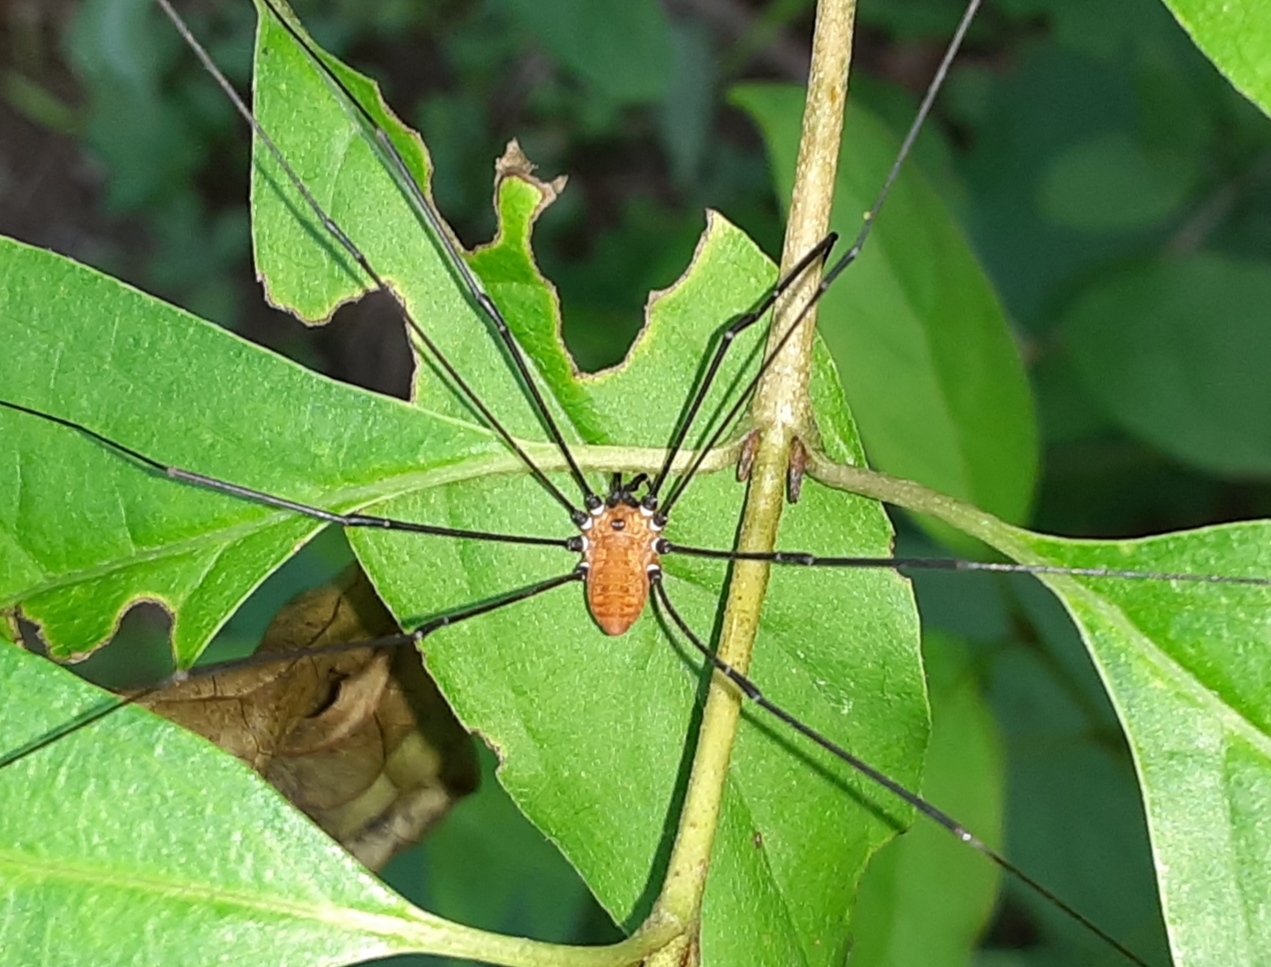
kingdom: Animalia
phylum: Arthropoda
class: Arachnida
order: Opiliones
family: Sclerosomatidae
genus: Leiobunum
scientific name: Leiobunum nigropalpi
